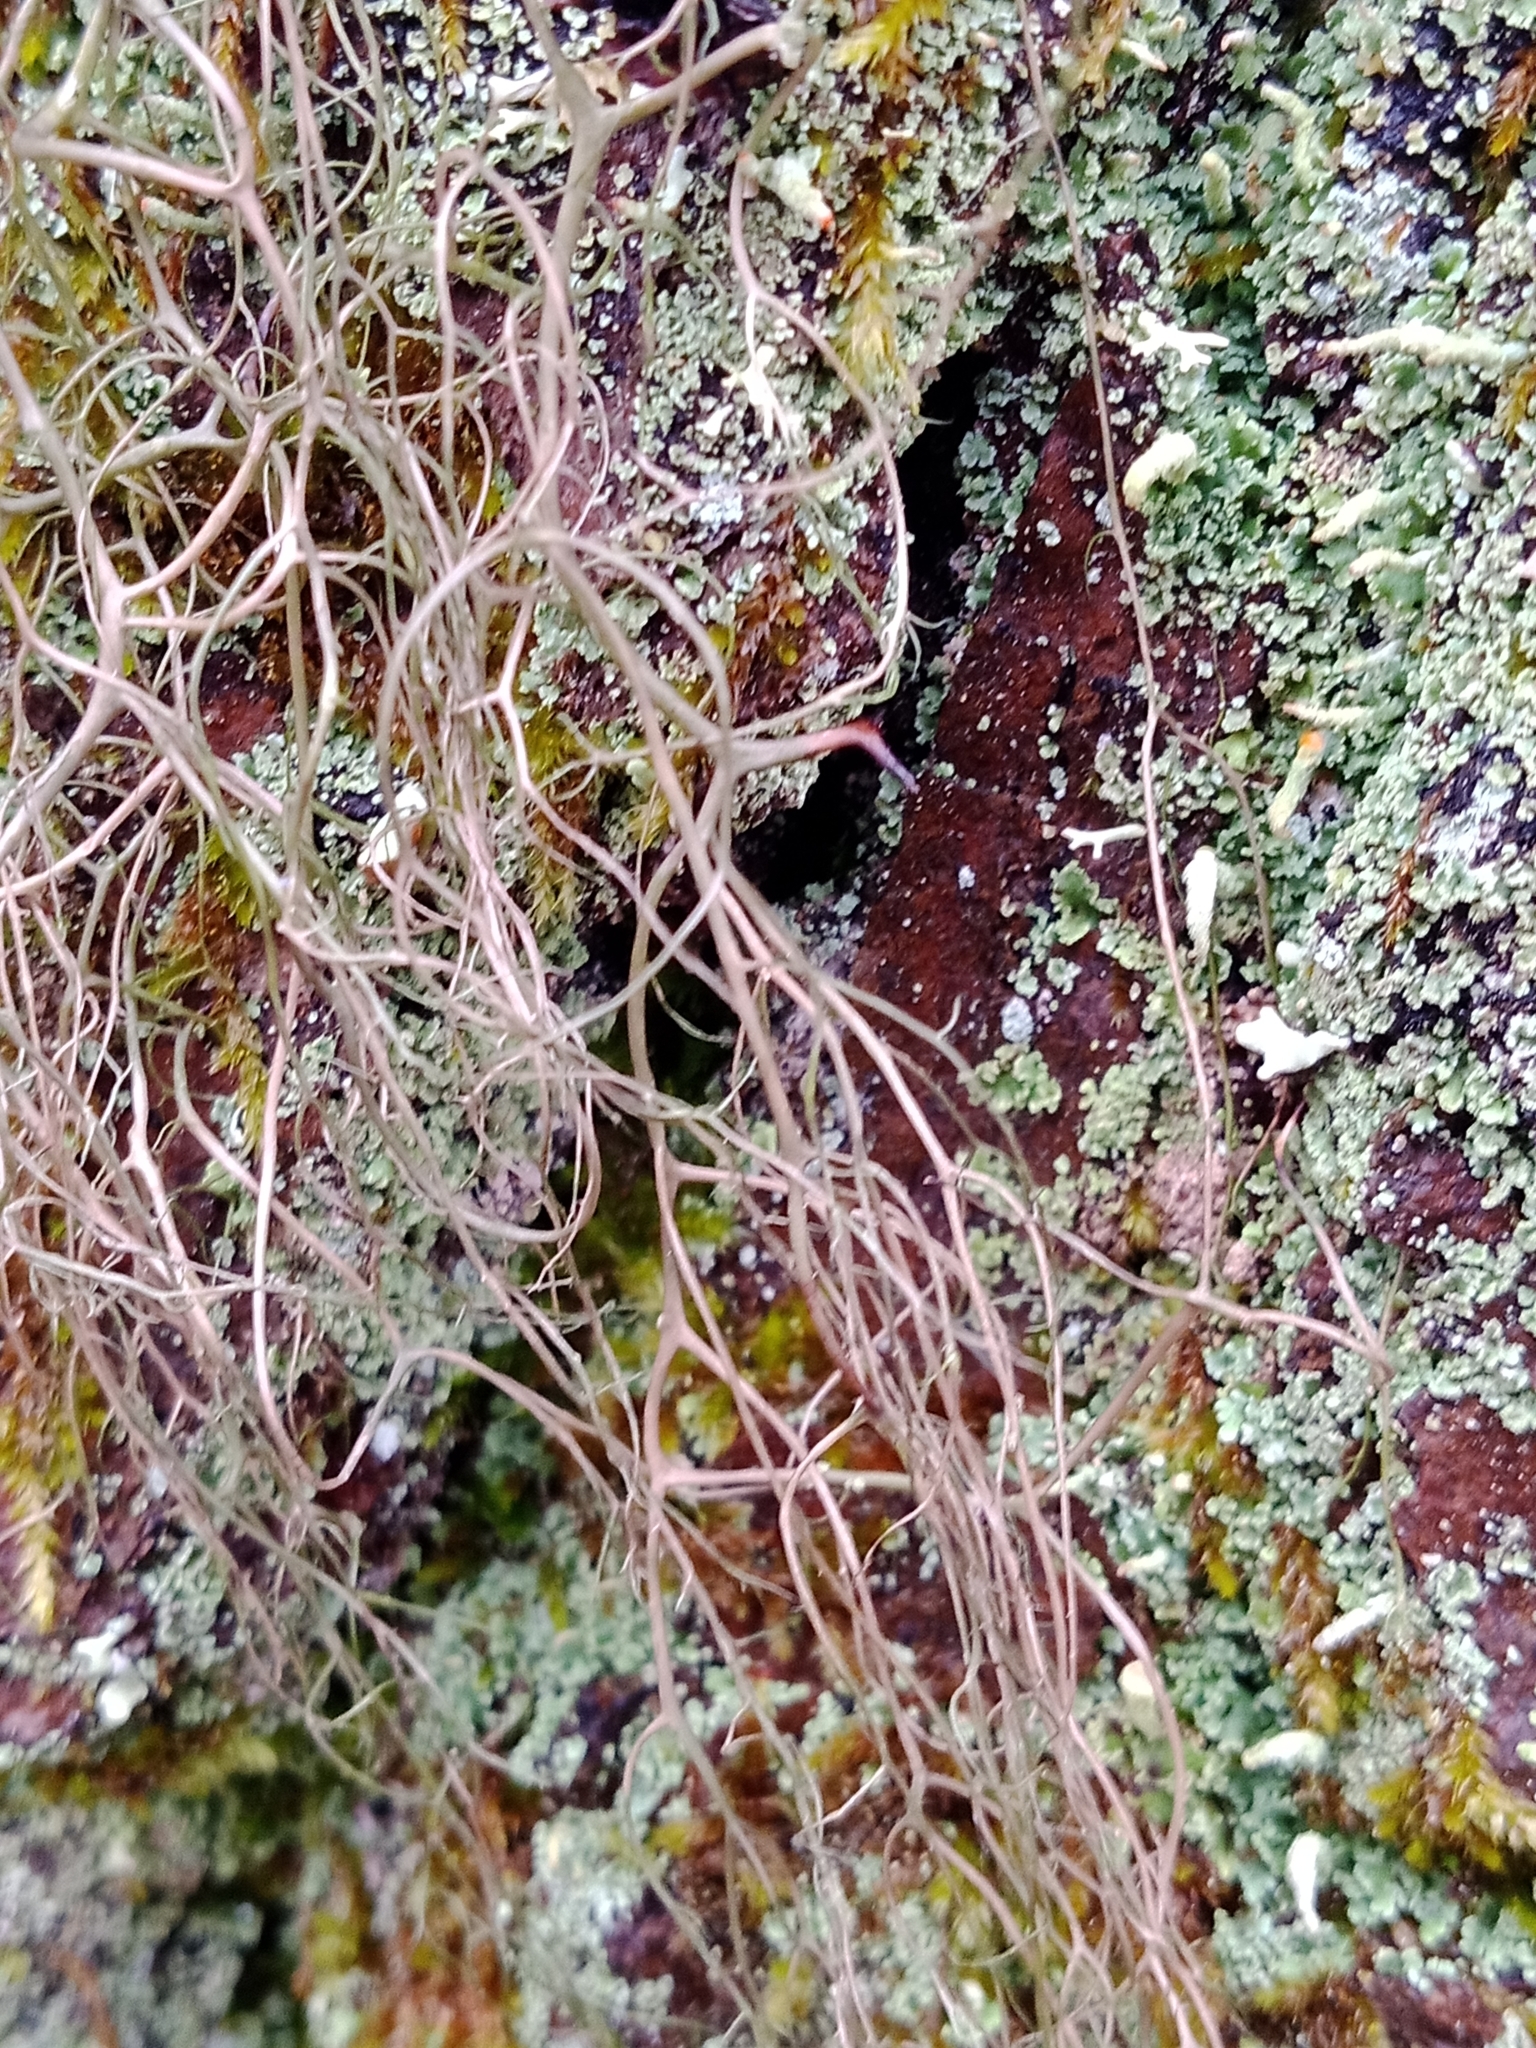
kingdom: Fungi
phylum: Ascomycota
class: Lecanoromycetes
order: Lecanorales
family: Parmeliaceae
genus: Bryoria
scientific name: Bryoria fuscescens
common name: Pale-footed horsehair lichen
